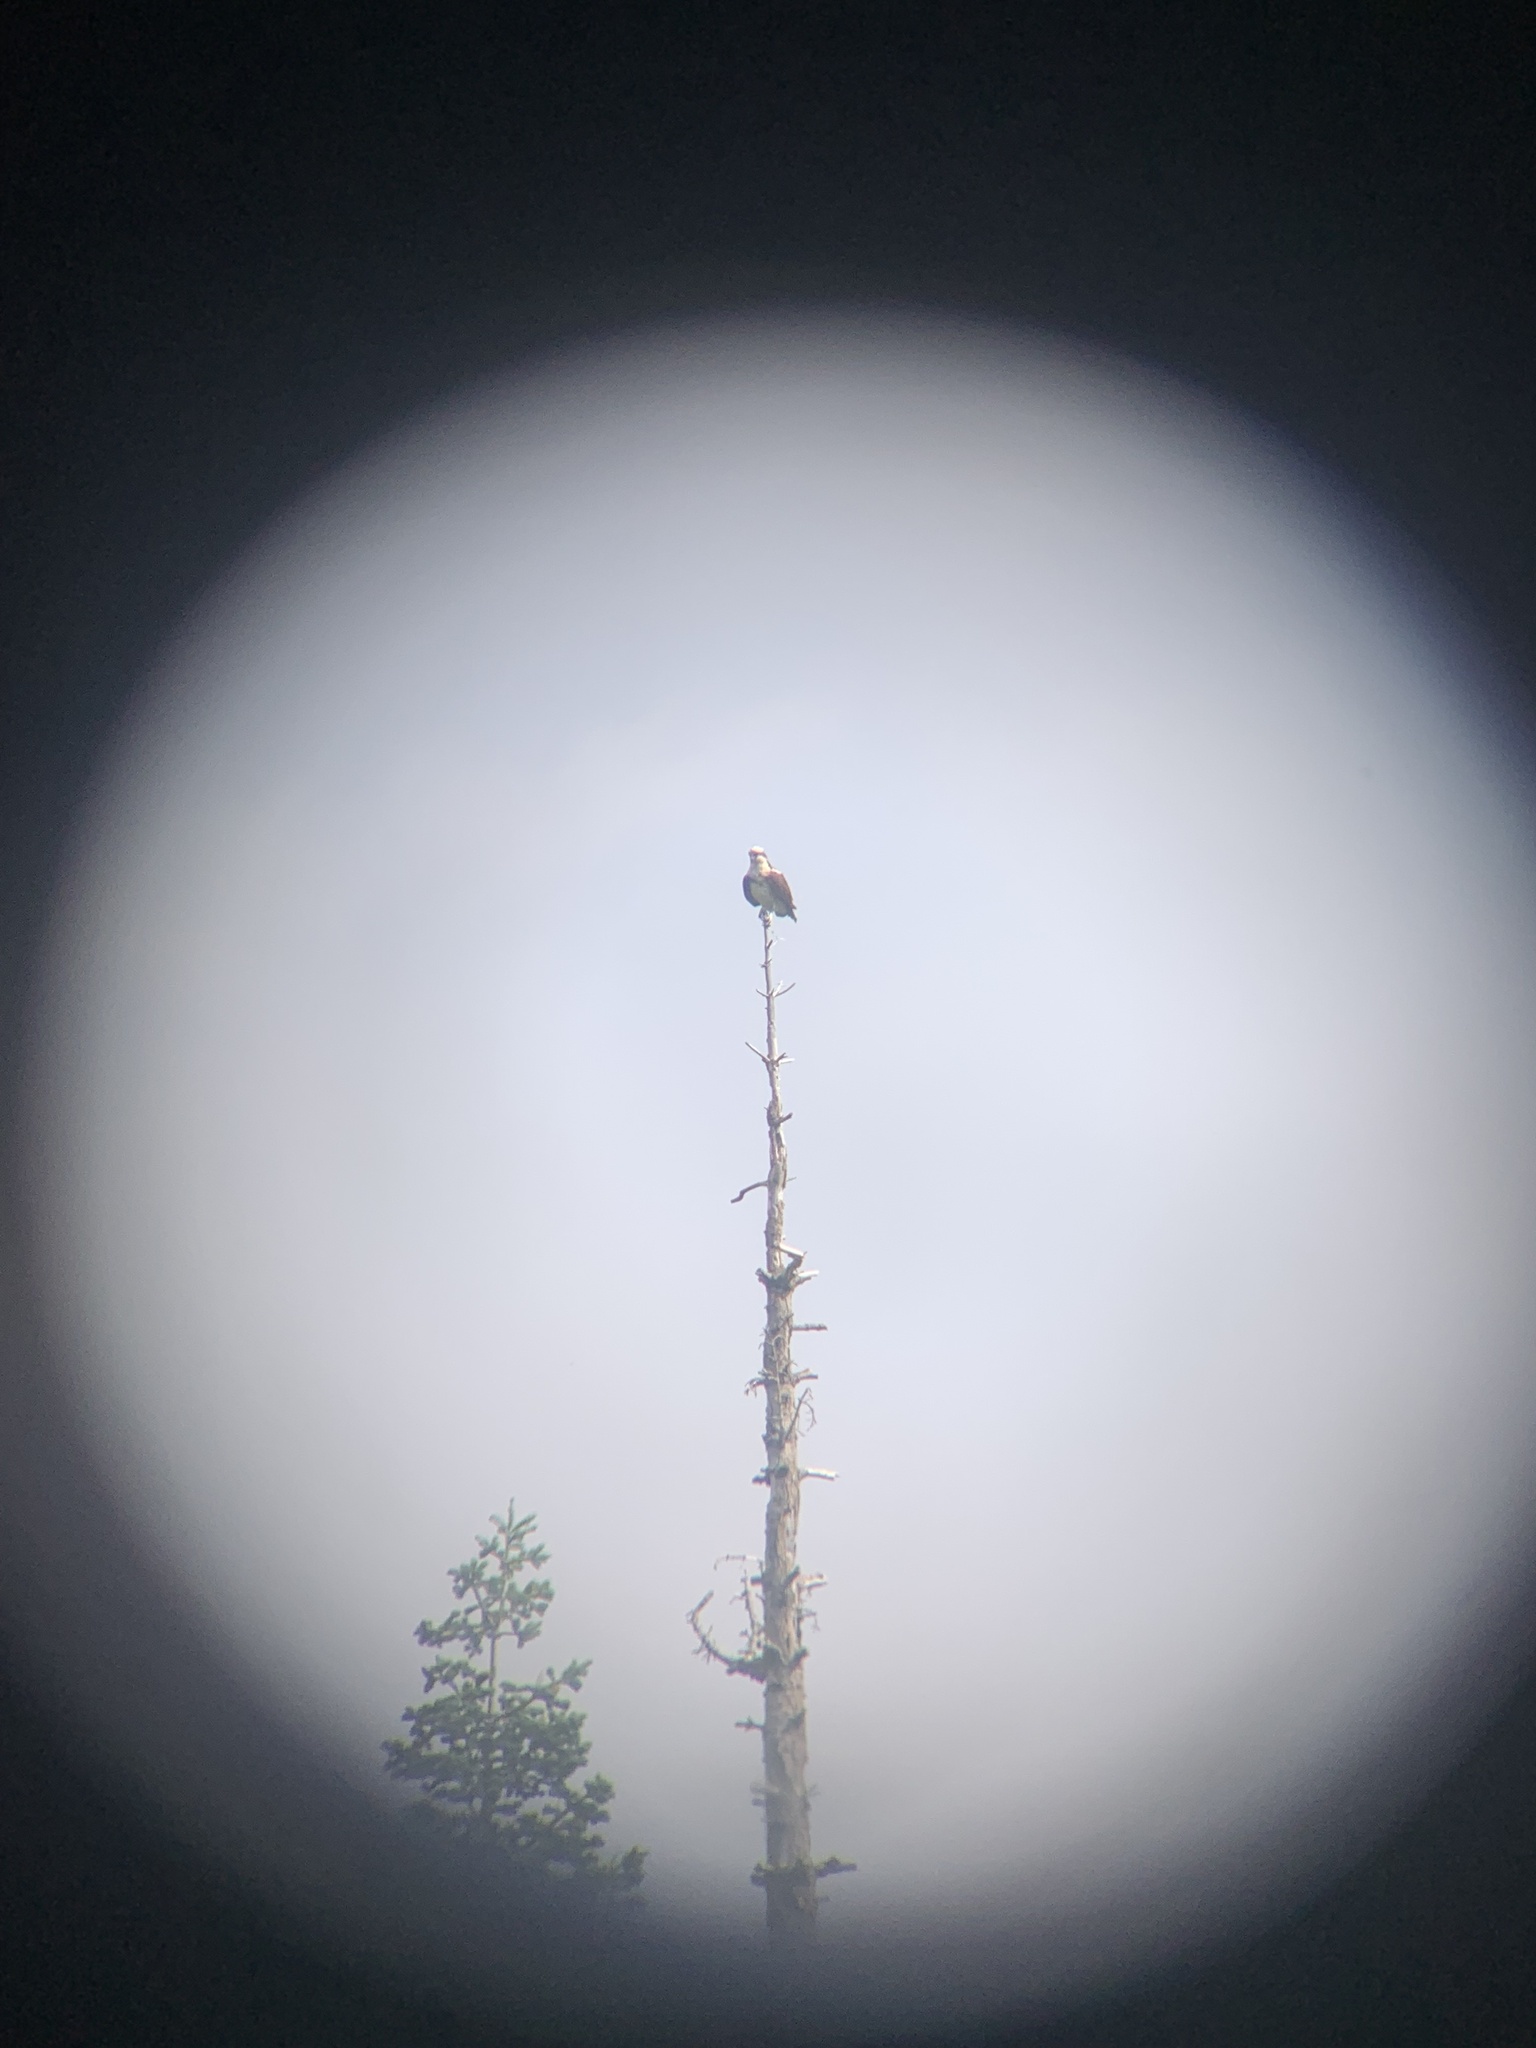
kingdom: Animalia
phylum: Chordata
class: Aves
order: Accipitriformes
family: Pandionidae
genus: Pandion
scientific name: Pandion haliaetus
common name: Osprey
